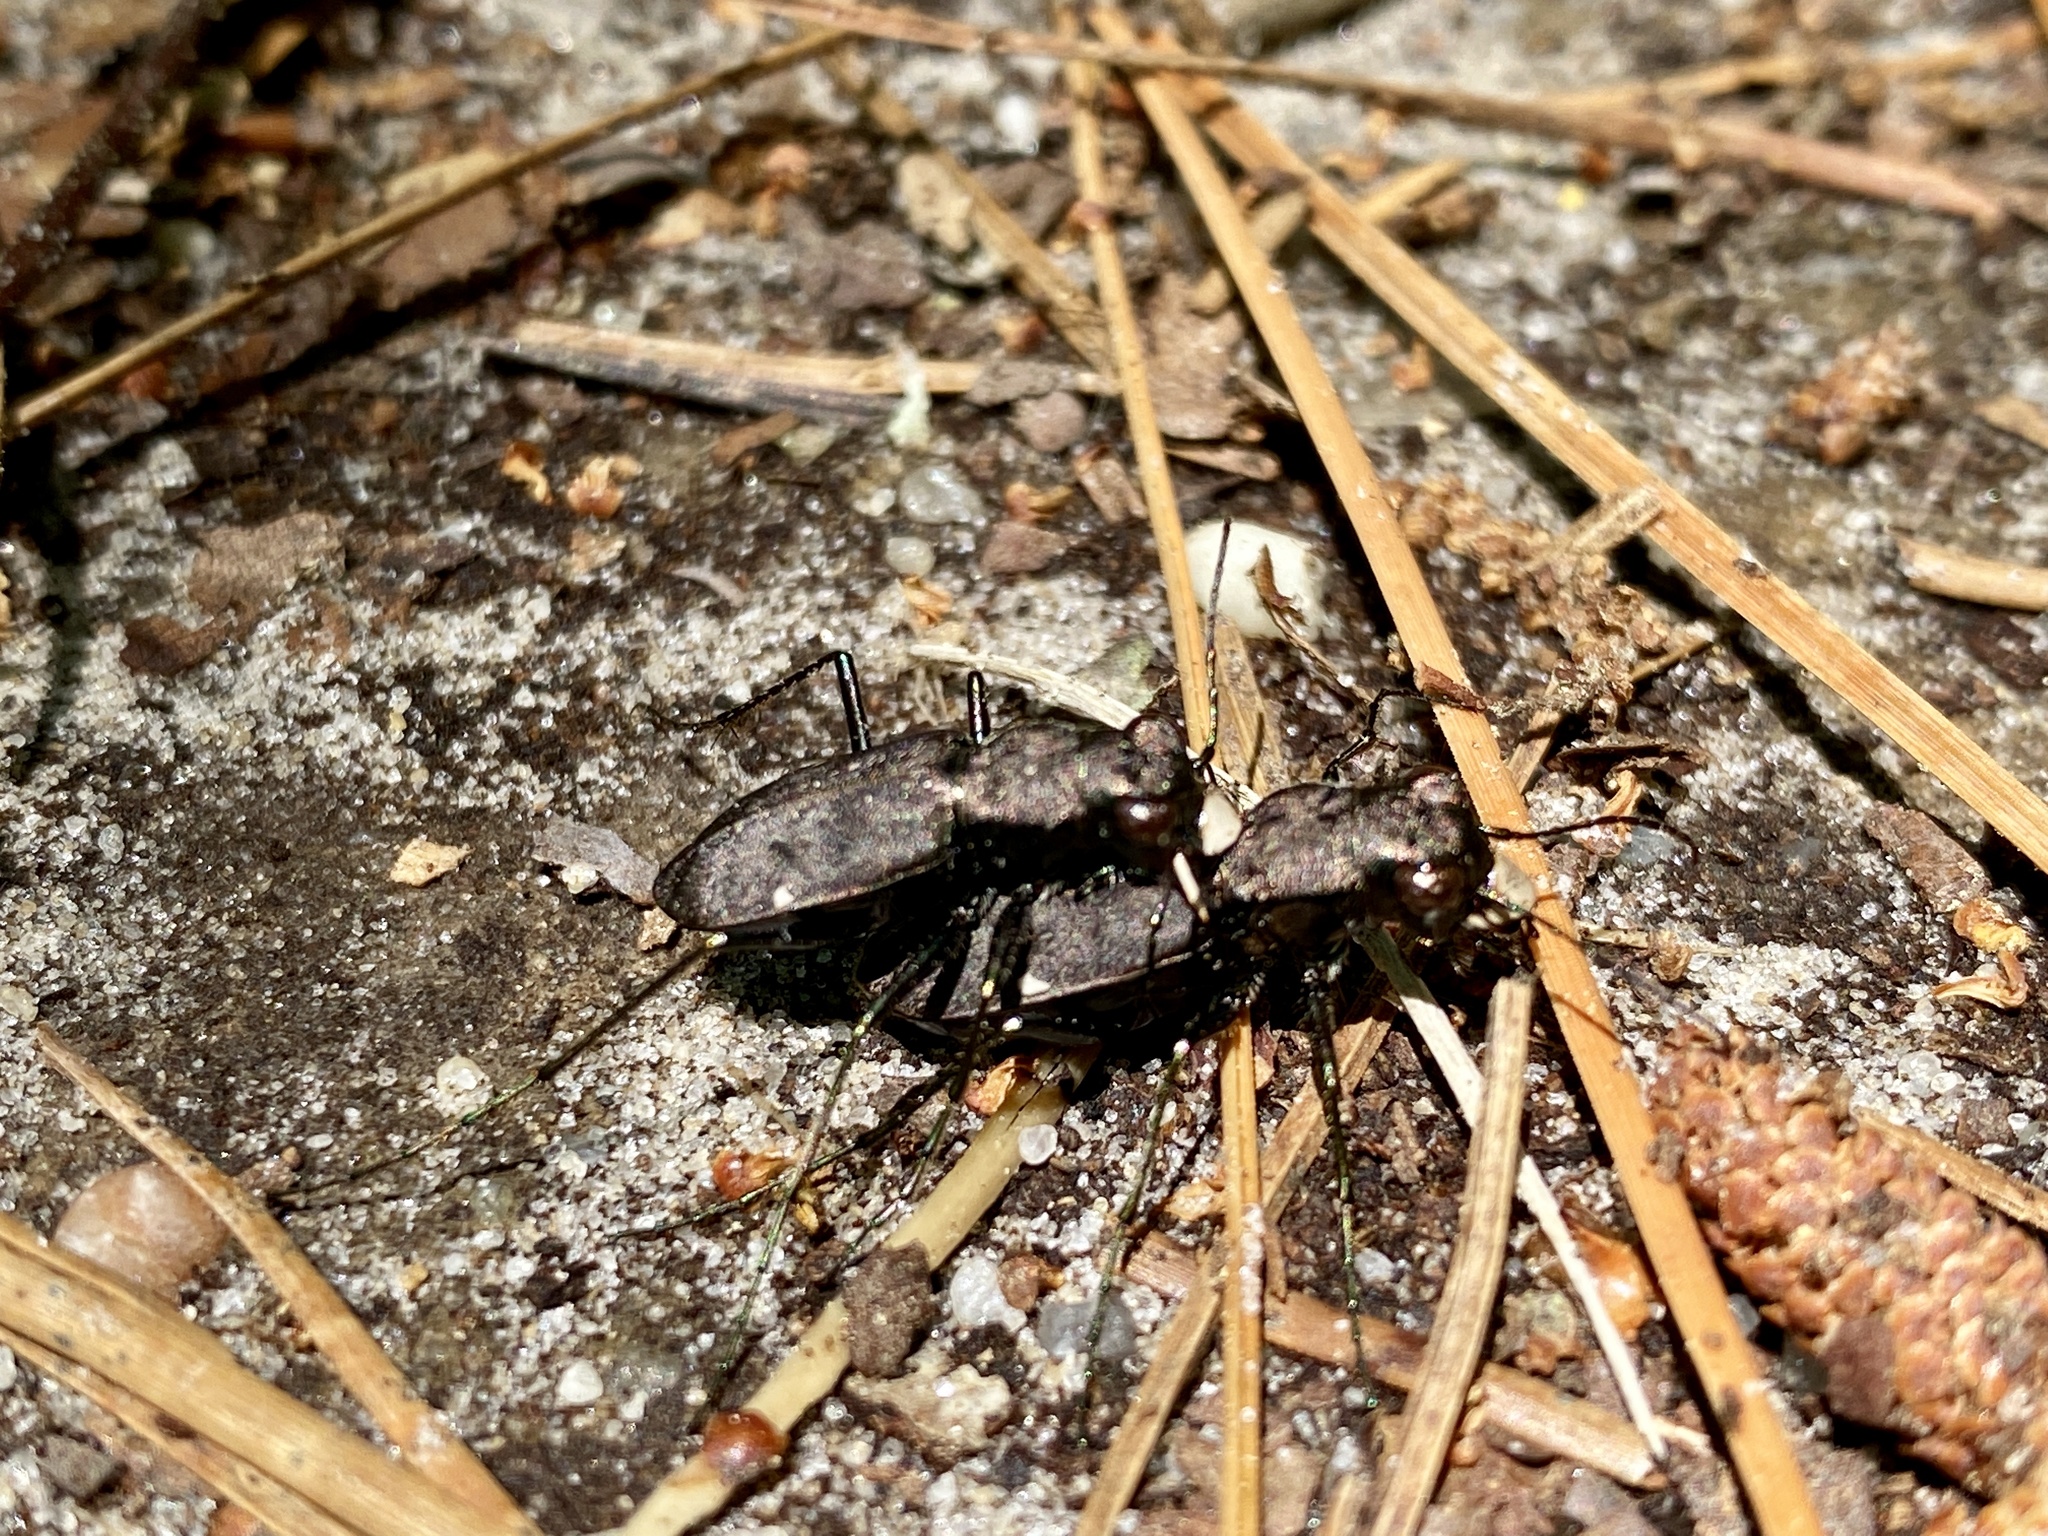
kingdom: Animalia
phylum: Arthropoda
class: Insecta
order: Coleoptera
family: Carabidae
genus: Cylindera
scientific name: Cylindera unipunctata
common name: One-spotted tiger beetle
